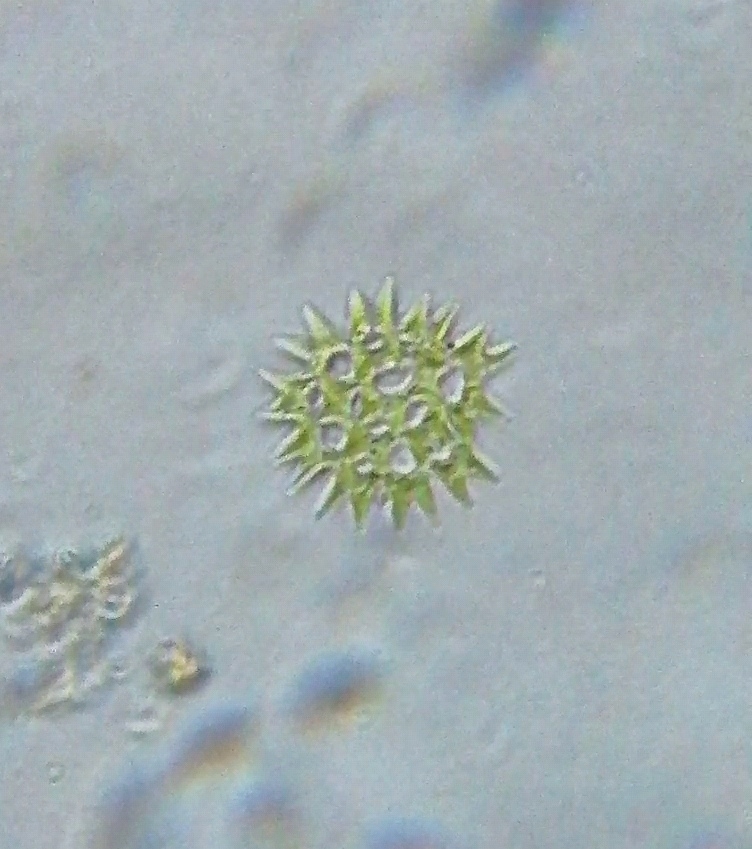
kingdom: Plantae
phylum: Chlorophyta
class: Chlorophyceae
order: Sphaeropleales
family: Hydrodictyaceae
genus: Pediastrum
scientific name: Pediastrum duplex
